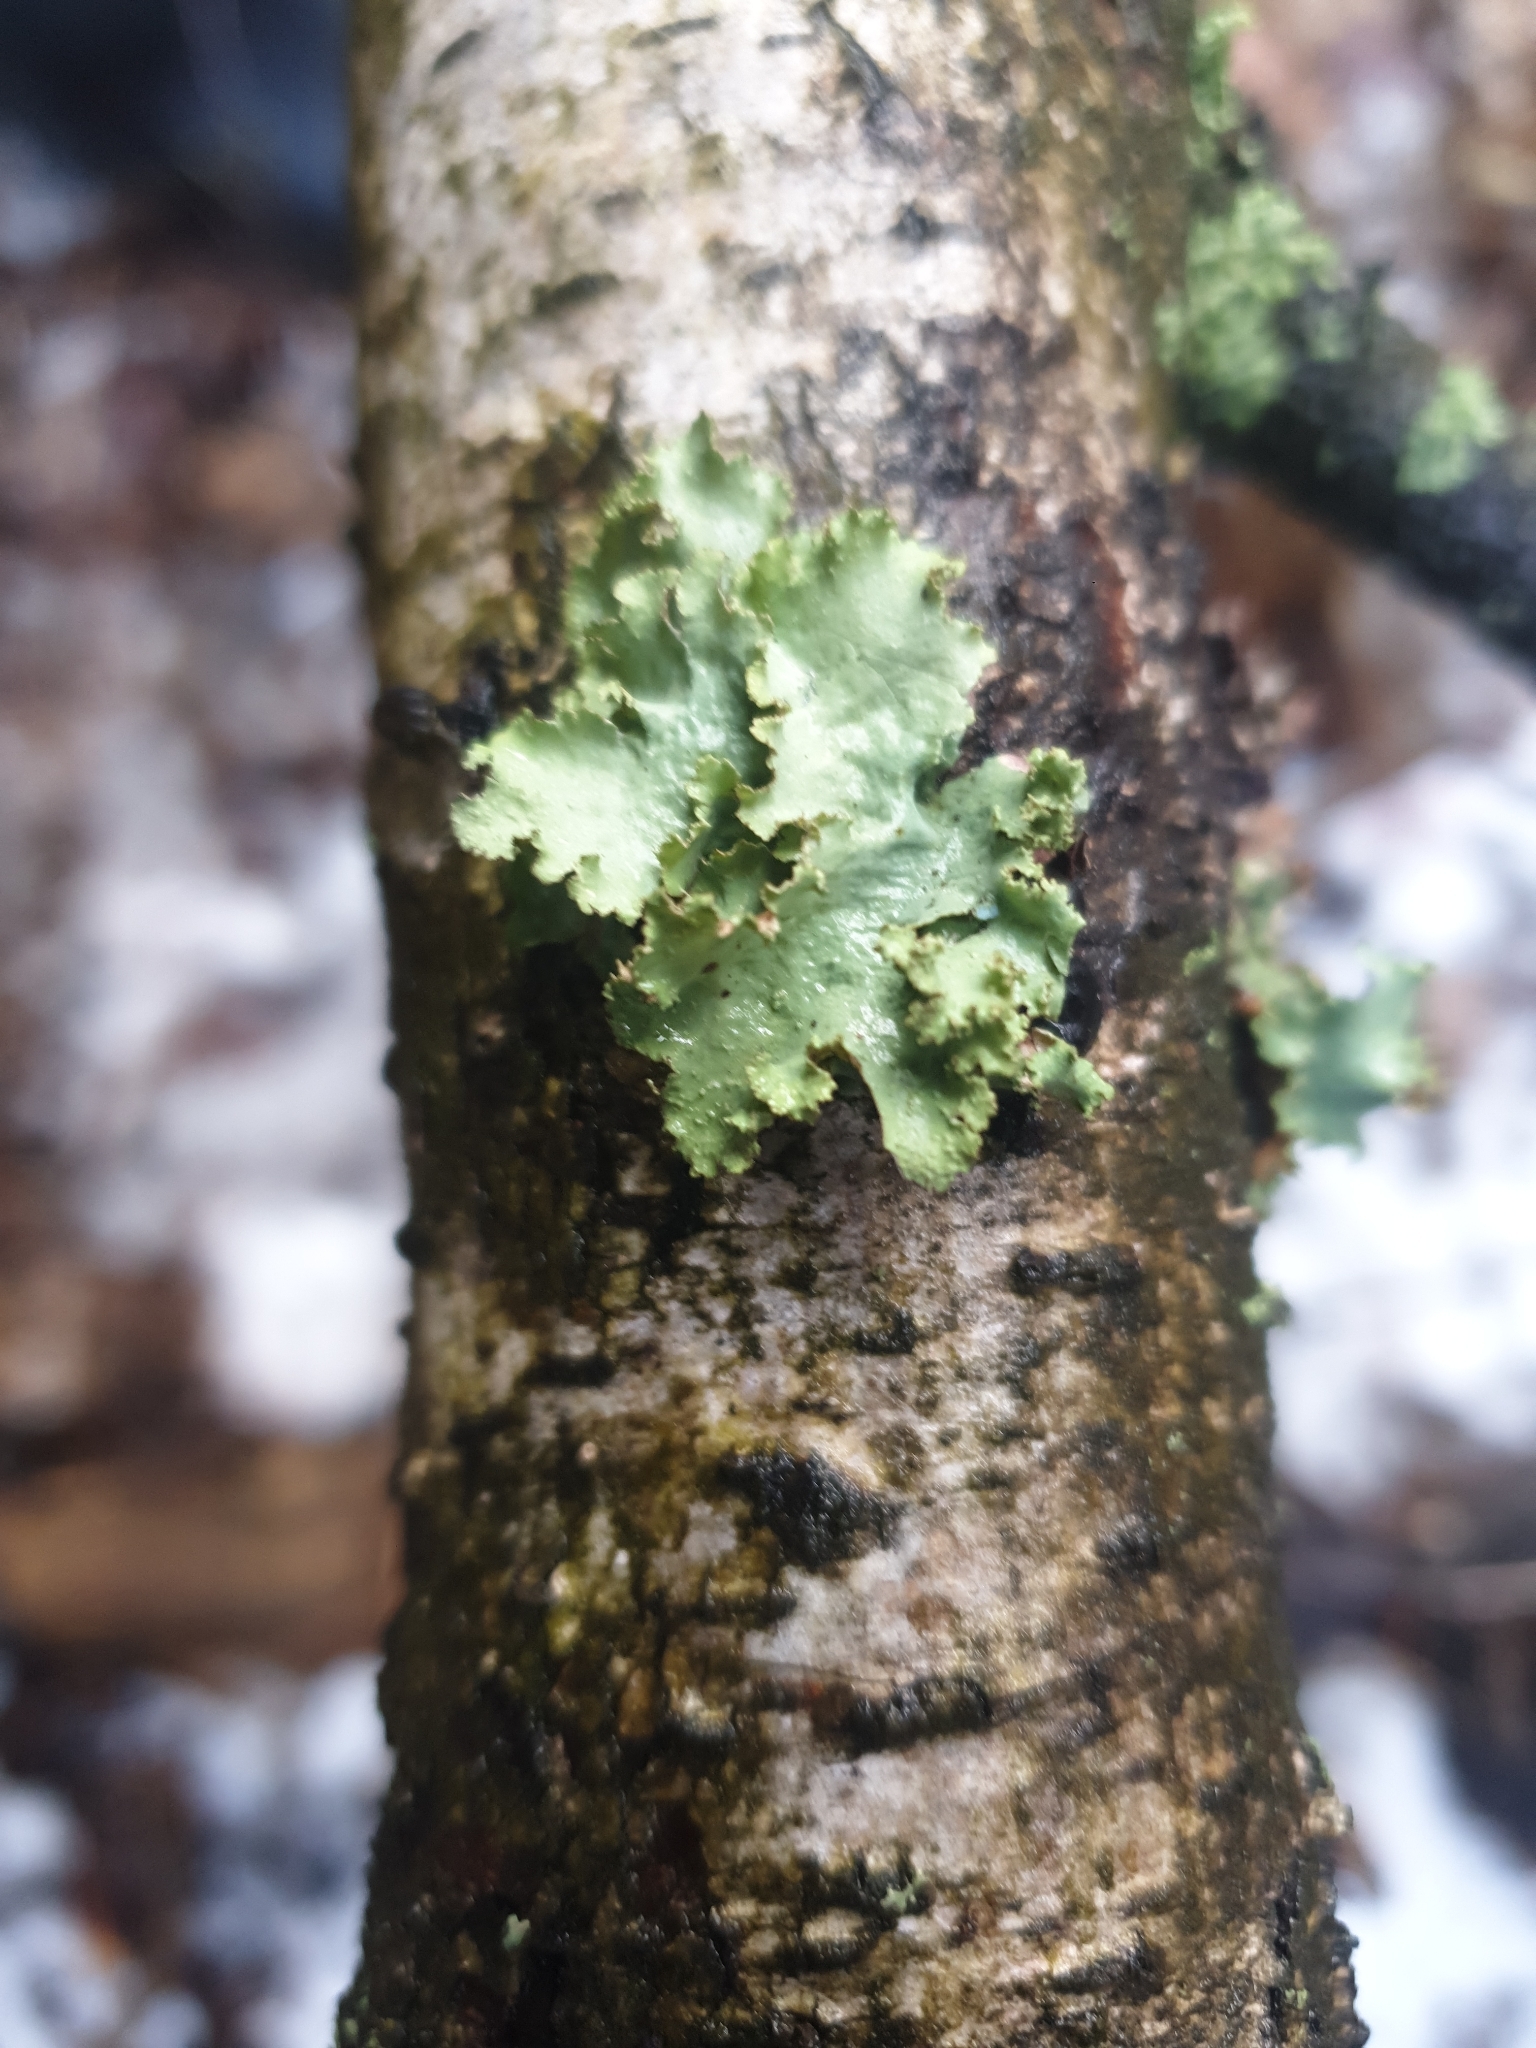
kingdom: Fungi
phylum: Ascomycota
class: Lecanoromycetes
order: Lecanorales
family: Parmeliaceae
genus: Platismatia
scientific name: Platismatia glauca
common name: Varied rag lichen
